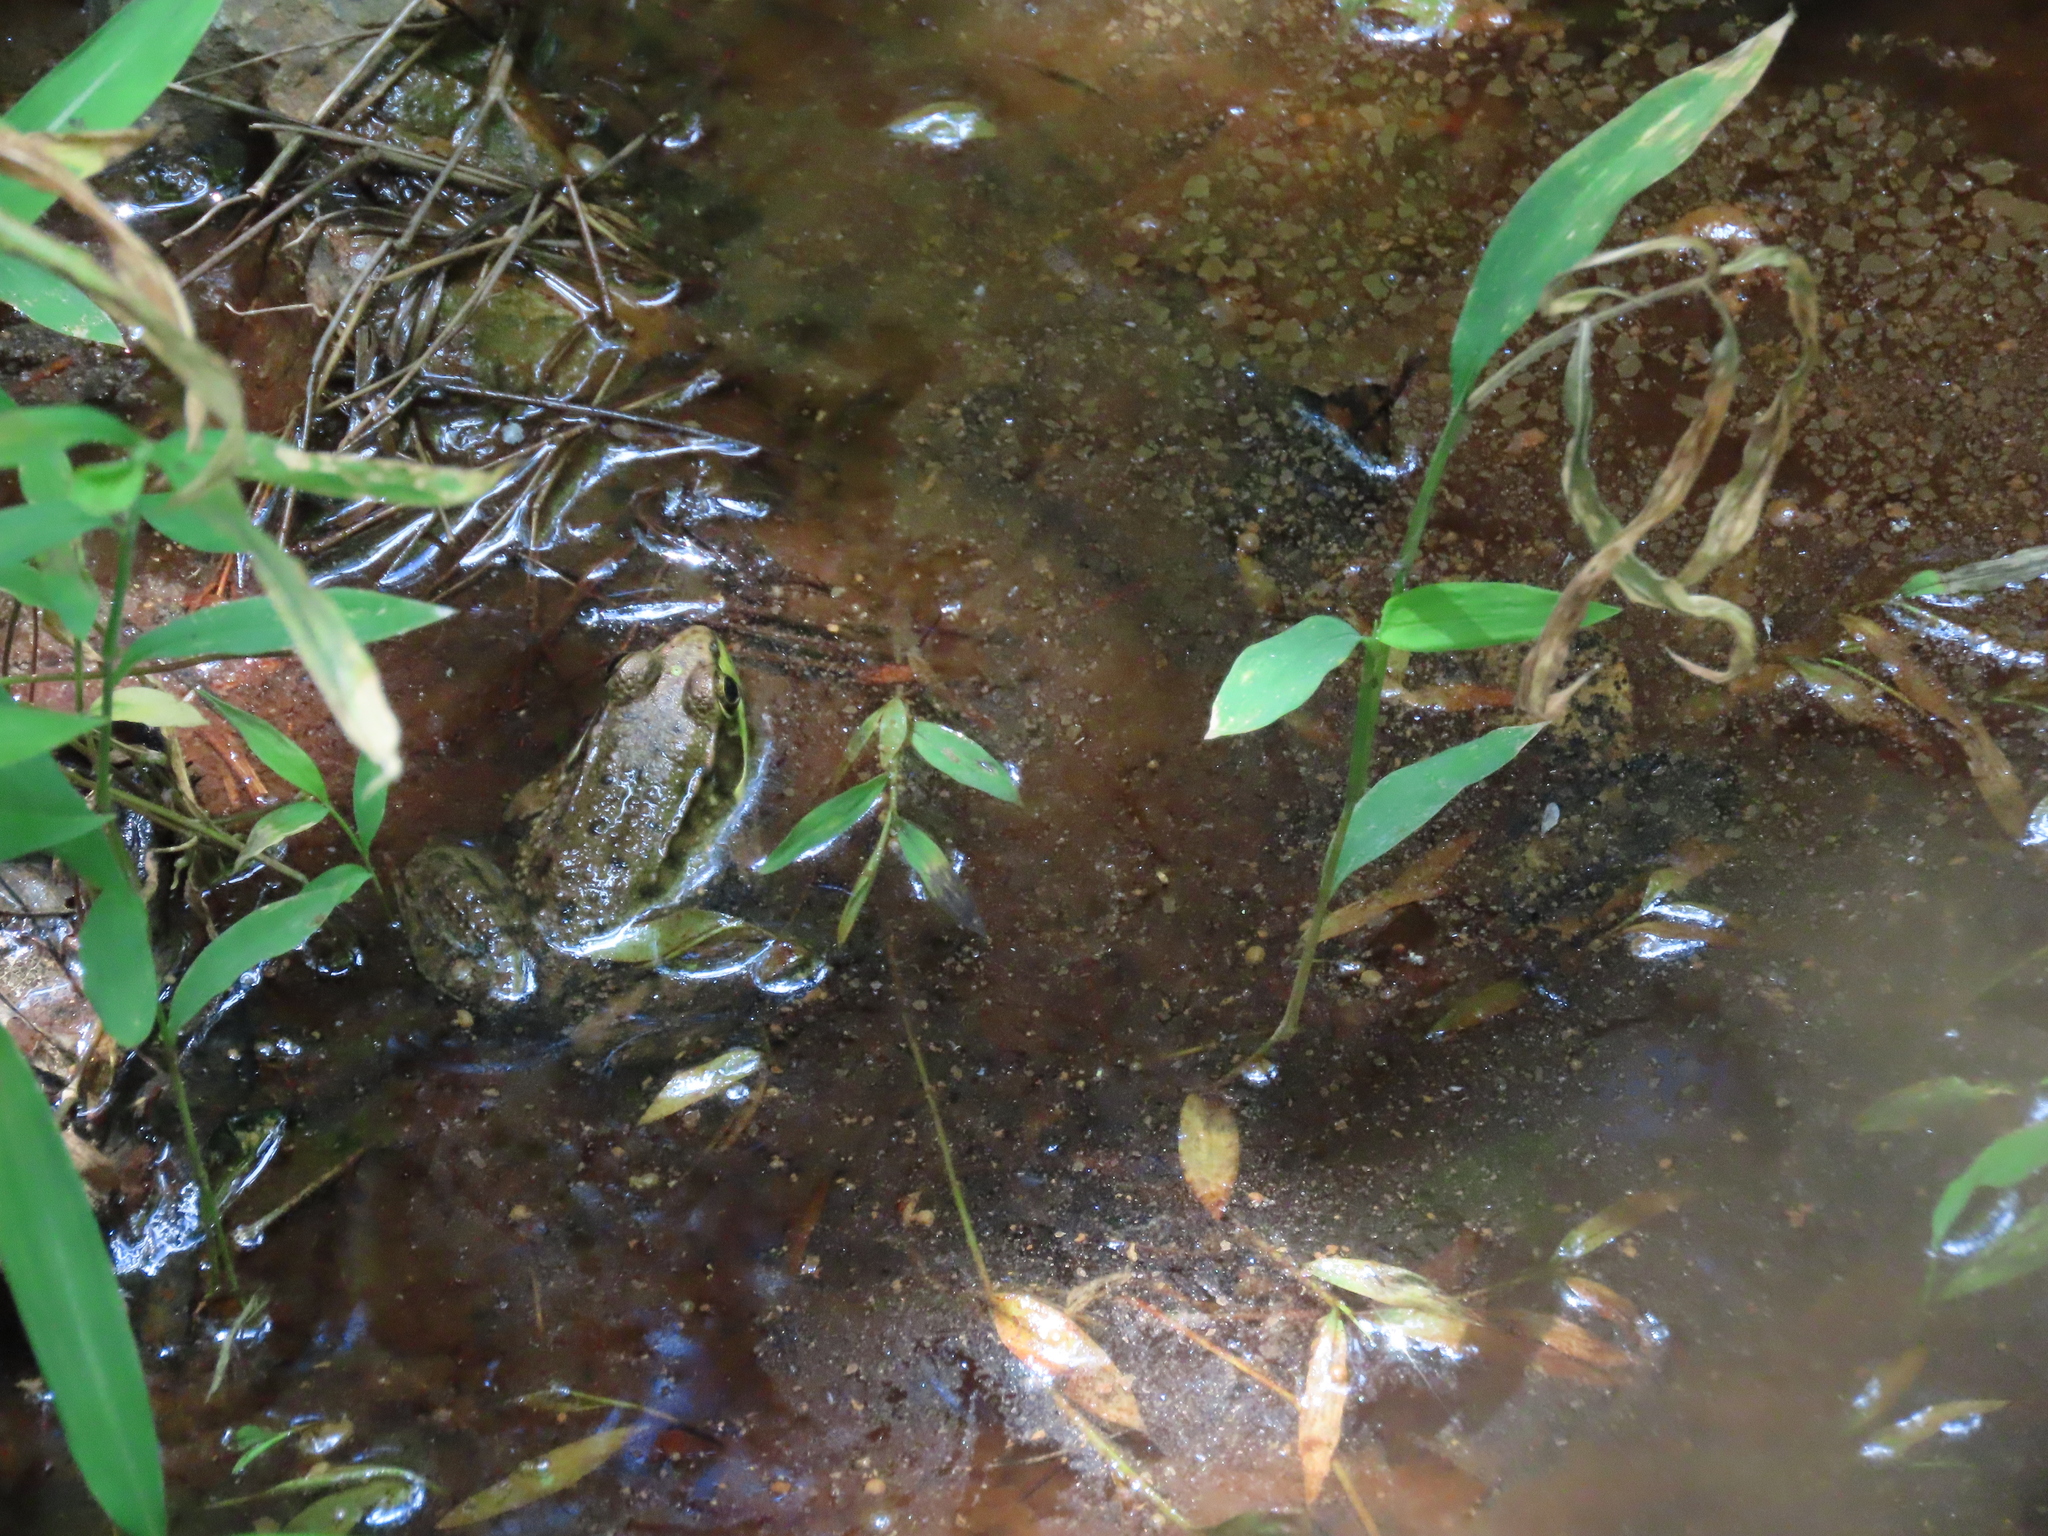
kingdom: Animalia
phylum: Chordata
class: Amphibia
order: Anura
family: Ranidae
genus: Lithobates
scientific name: Lithobates clamitans
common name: Green frog
